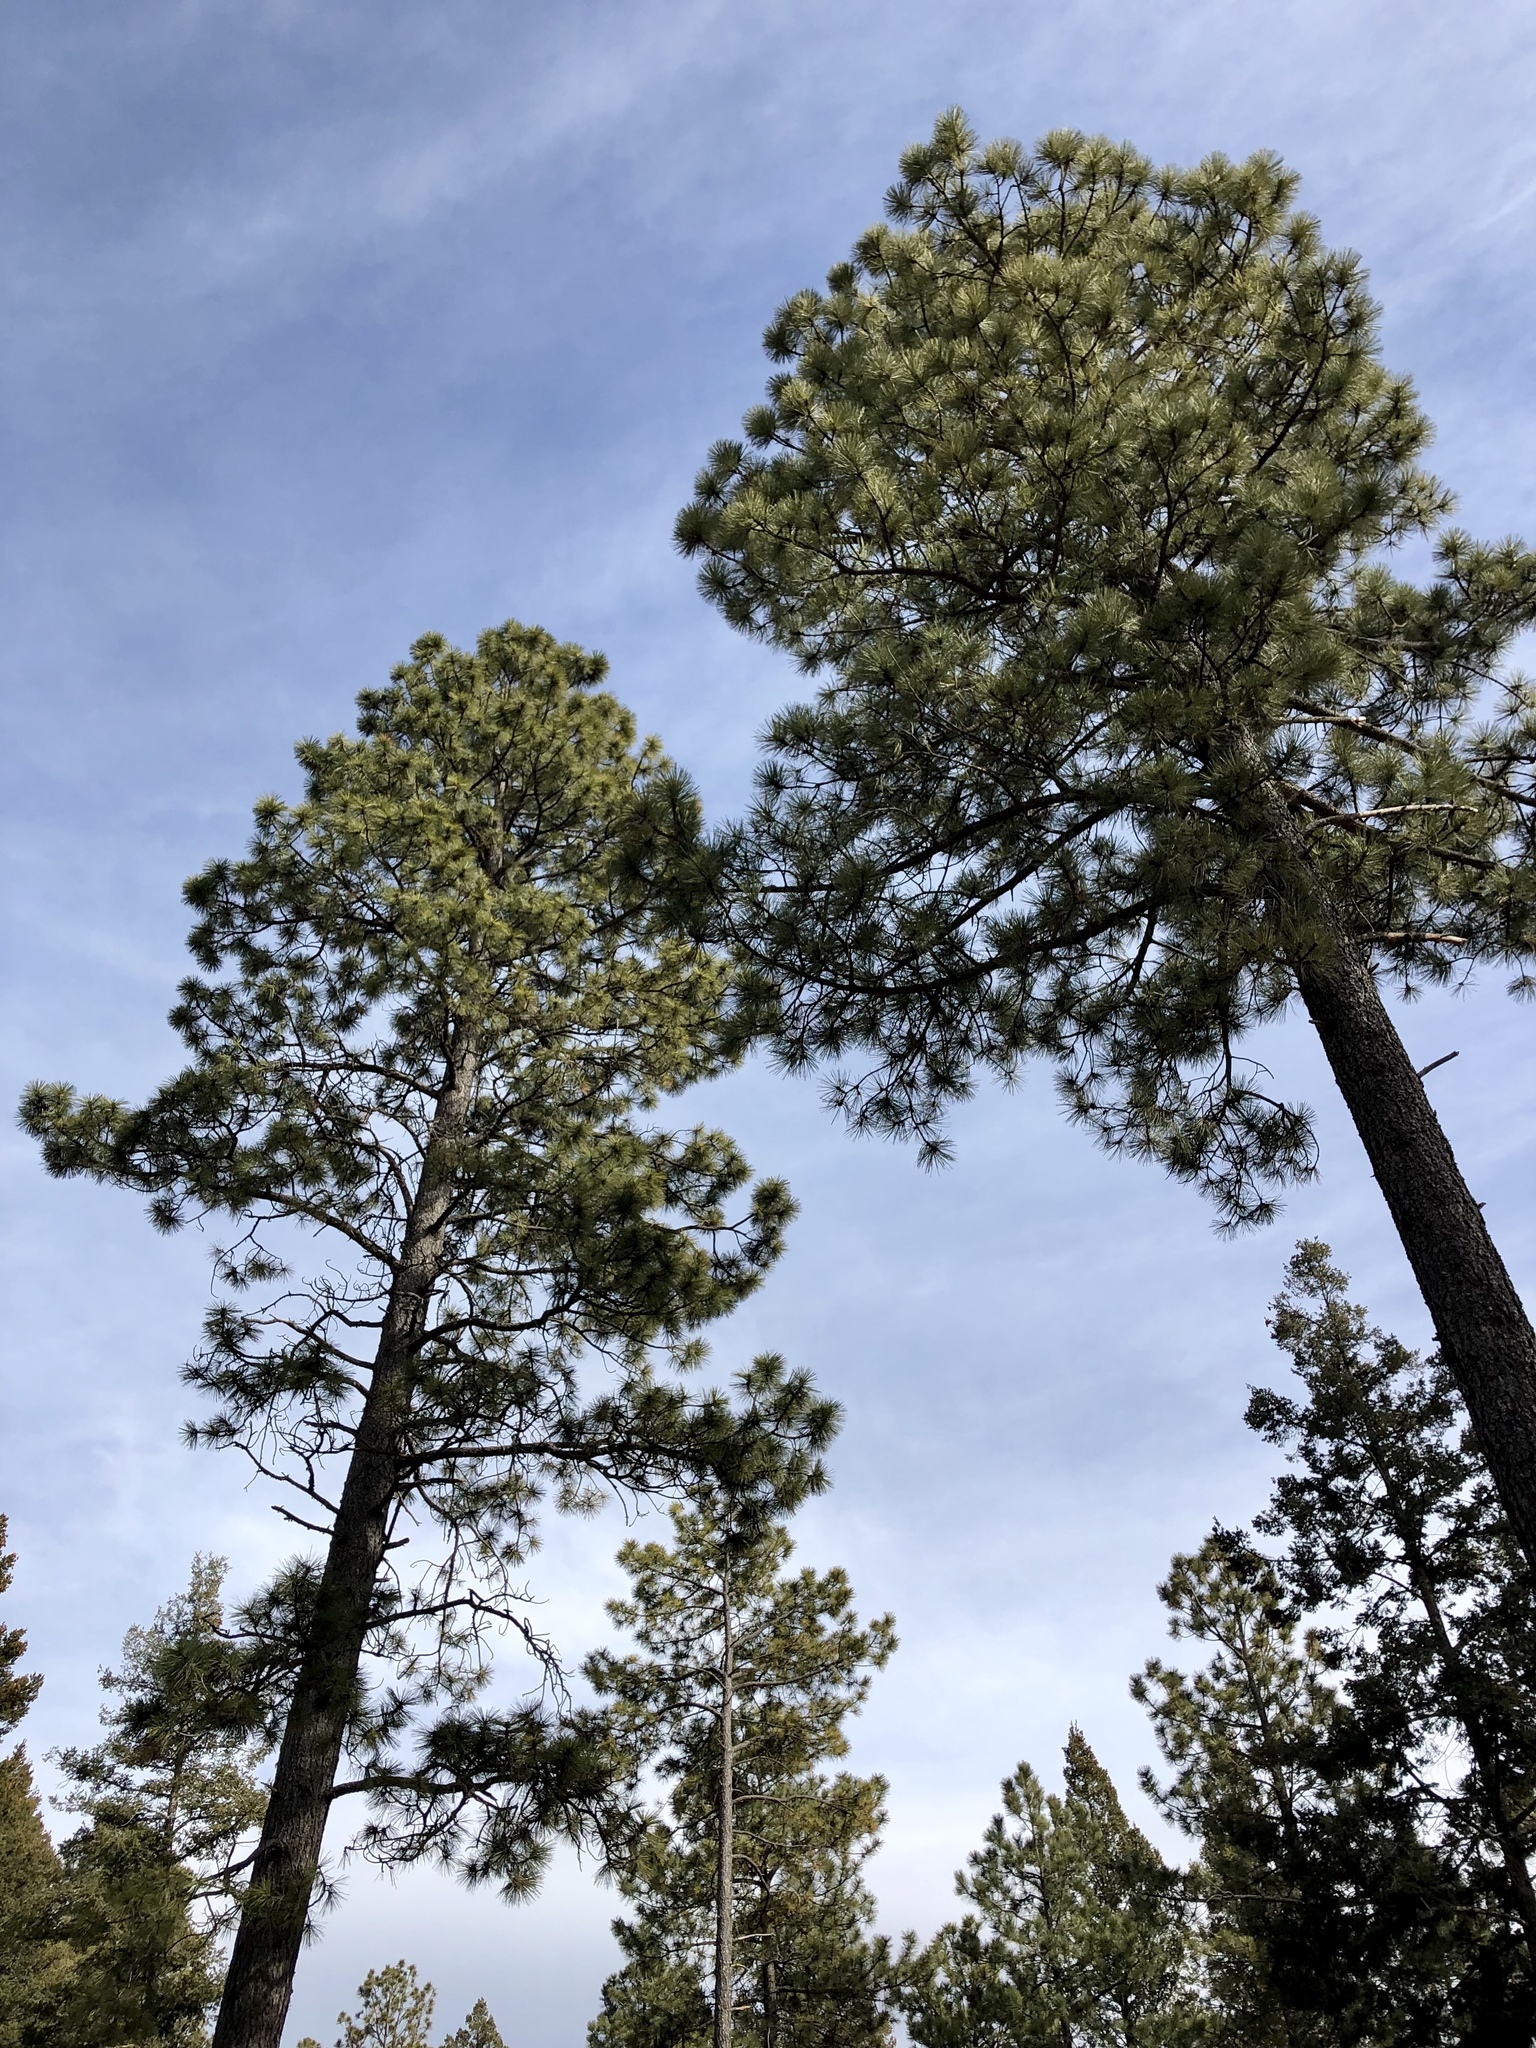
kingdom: Plantae
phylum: Tracheophyta
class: Pinopsida
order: Pinales
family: Pinaceae
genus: Pinus
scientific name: Pinus ponderosa
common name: Western yellow-pine
